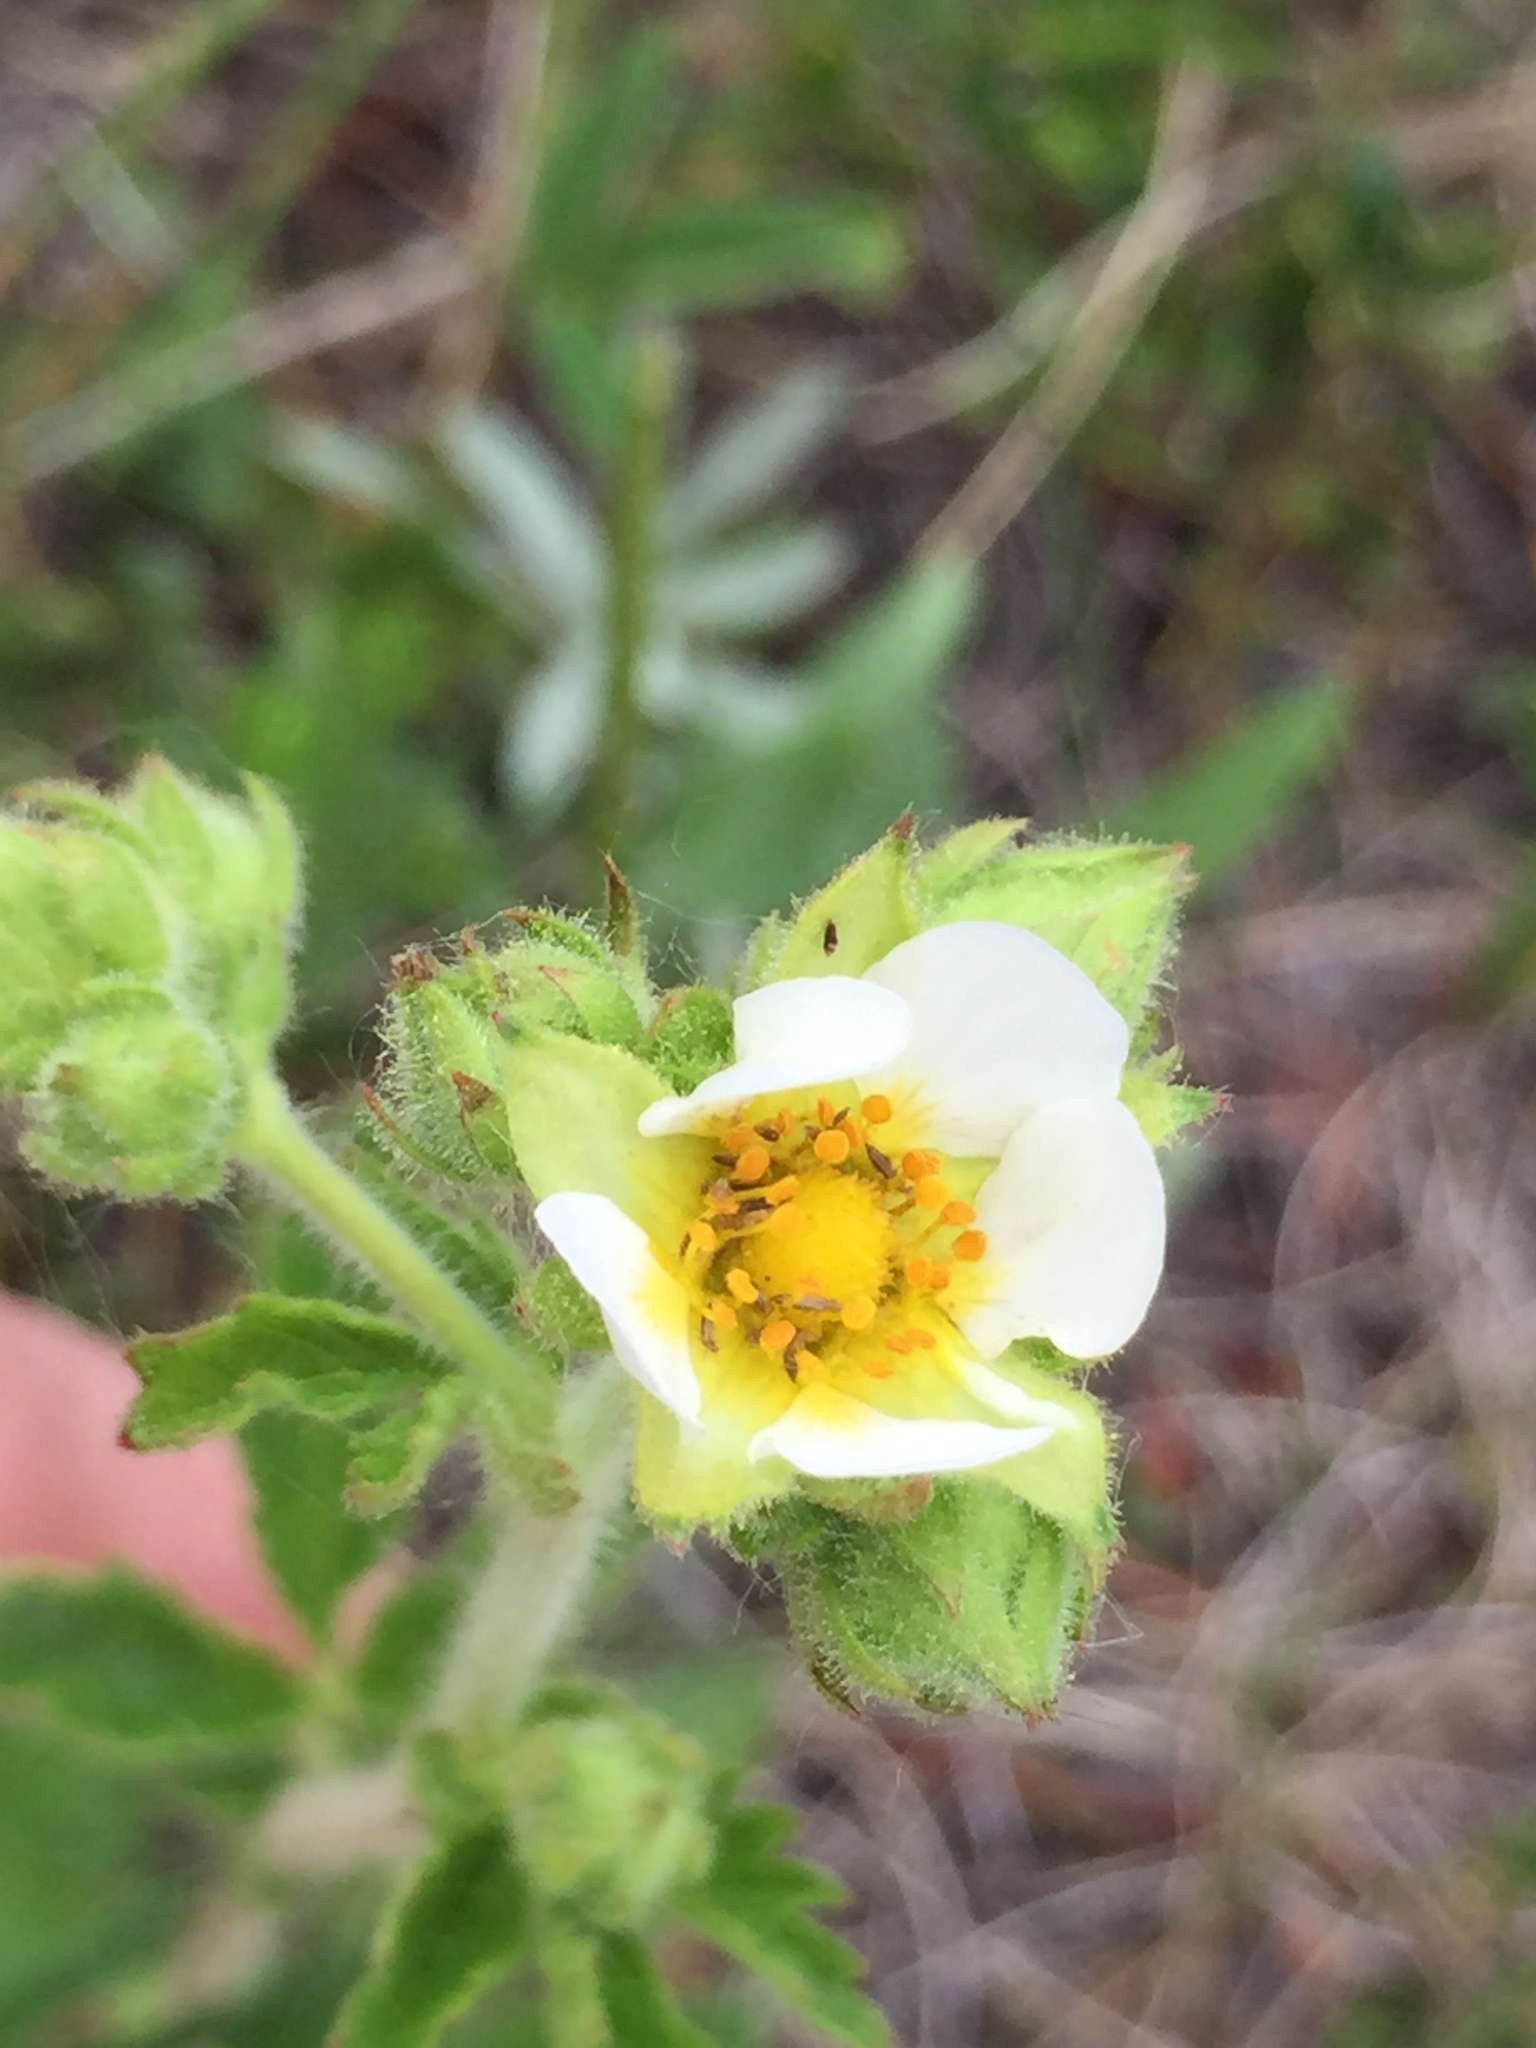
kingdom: Plantae
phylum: Tracheophyta
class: Magnoliopsida
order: Rosales
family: Rosaceae
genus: Drymocallis
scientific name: Drymocallis arguta
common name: Tall cinquefoil
